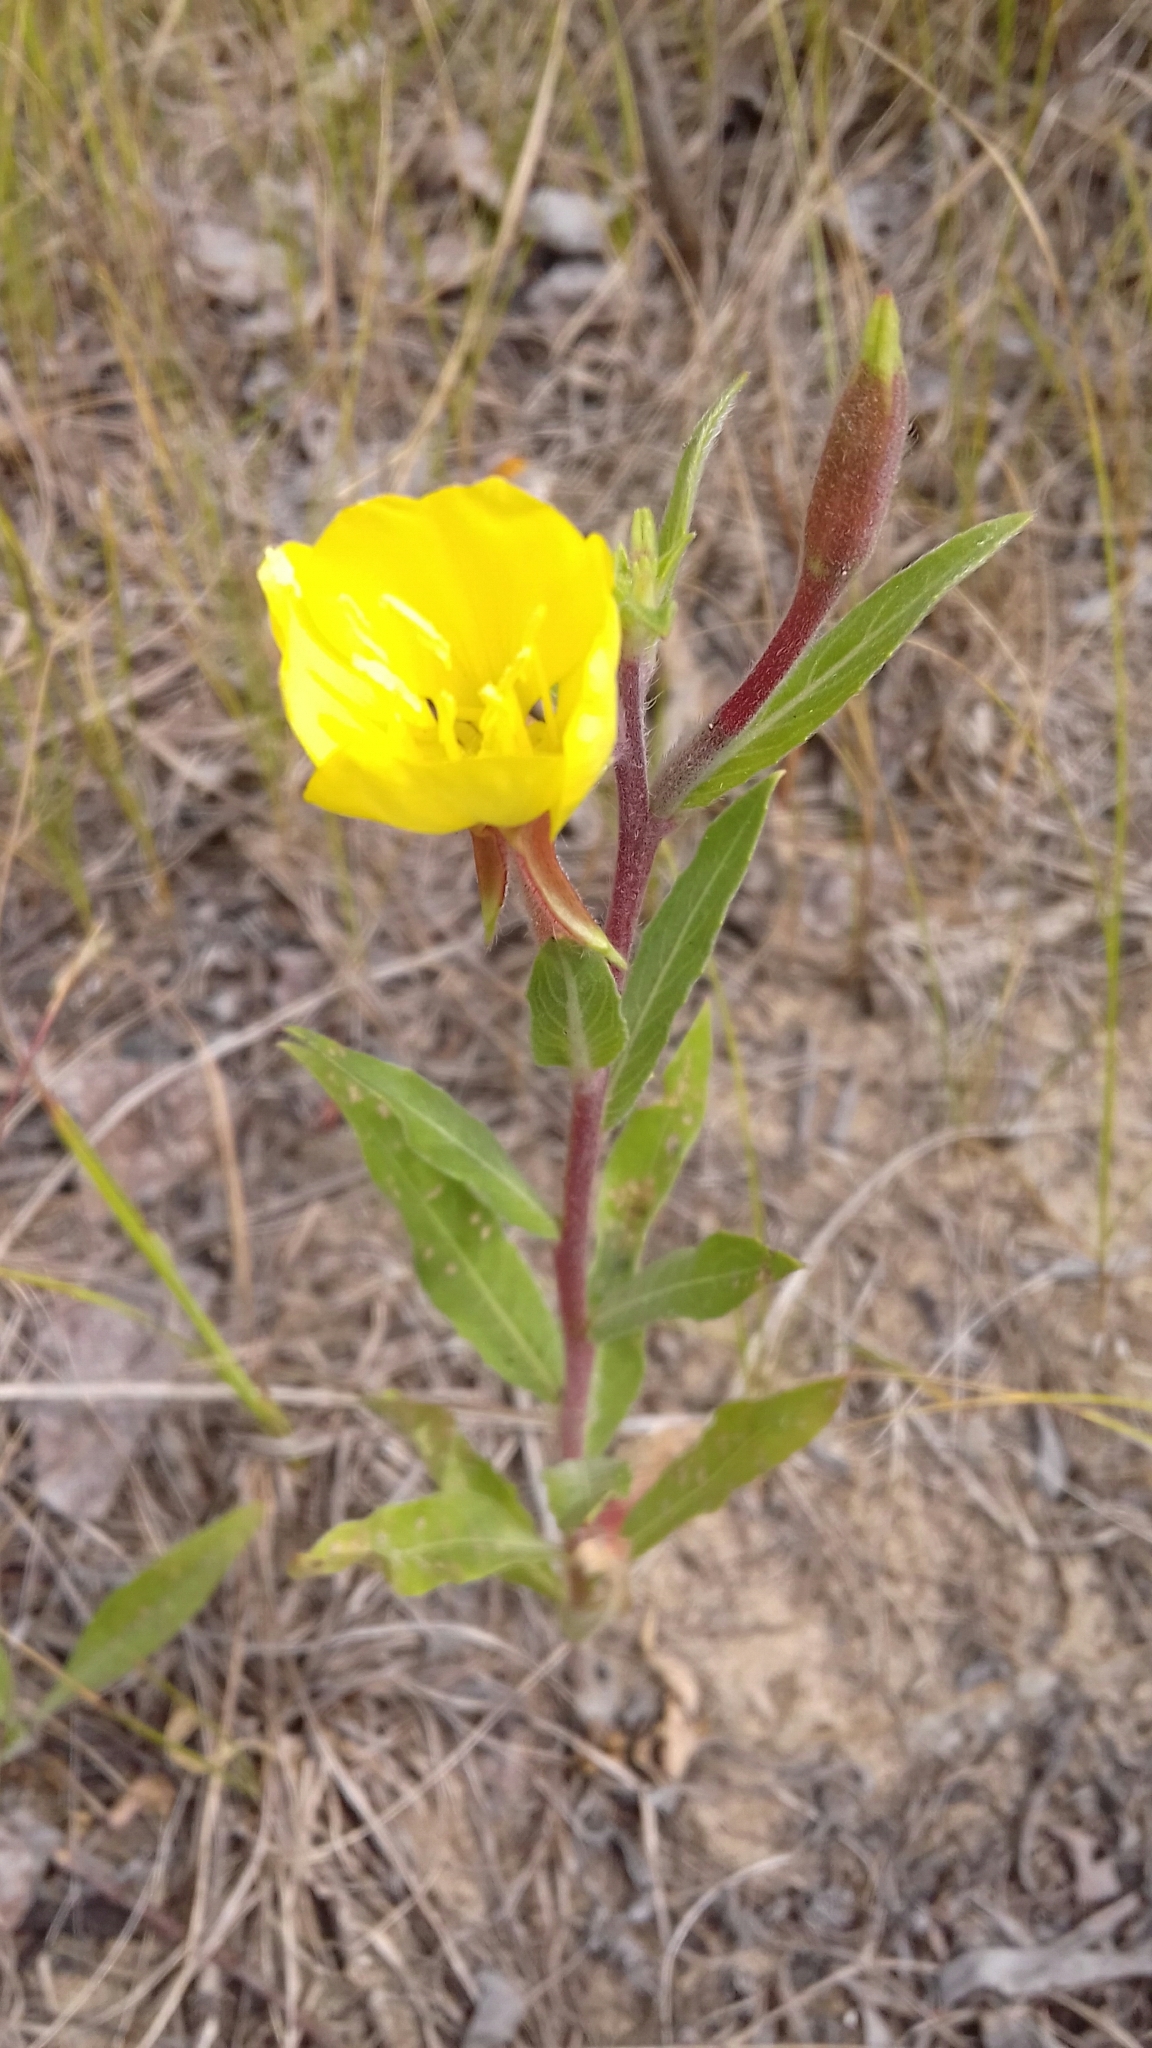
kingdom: Plantae
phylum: Tracheophyta
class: Magnoliopsida
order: Myrtales
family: Onagraceae
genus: Oenothera
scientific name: Oenothera coloratissima
